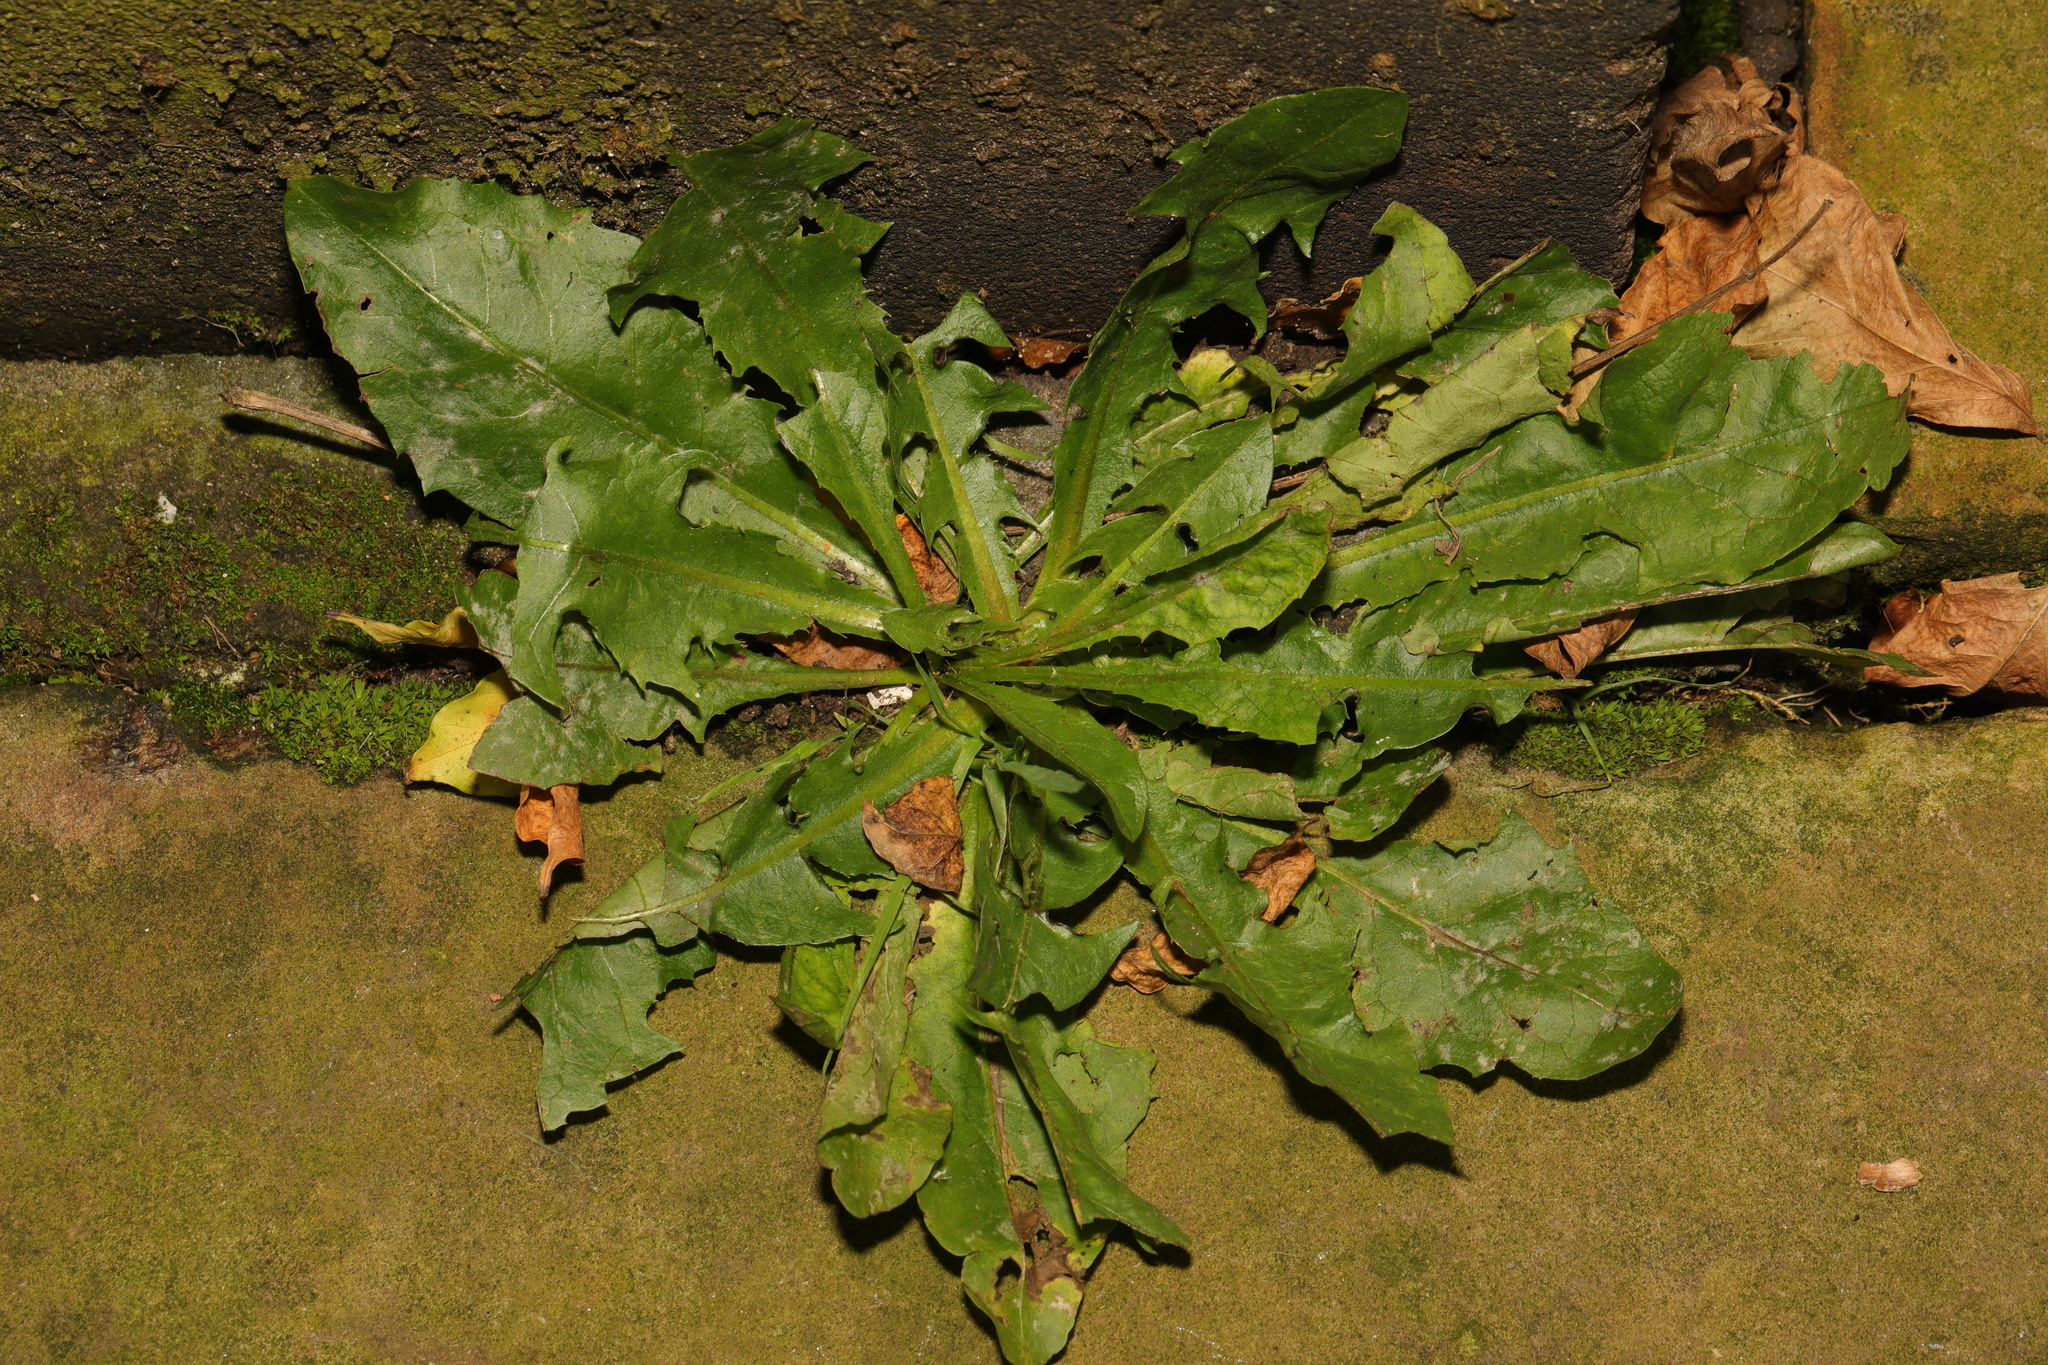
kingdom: Plantae
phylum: Tracheophyta
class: Magnoliopsida
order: Asterales
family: Asteraceae
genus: Taraxacum
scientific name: Taraxacum officinale
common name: Common dandelion
